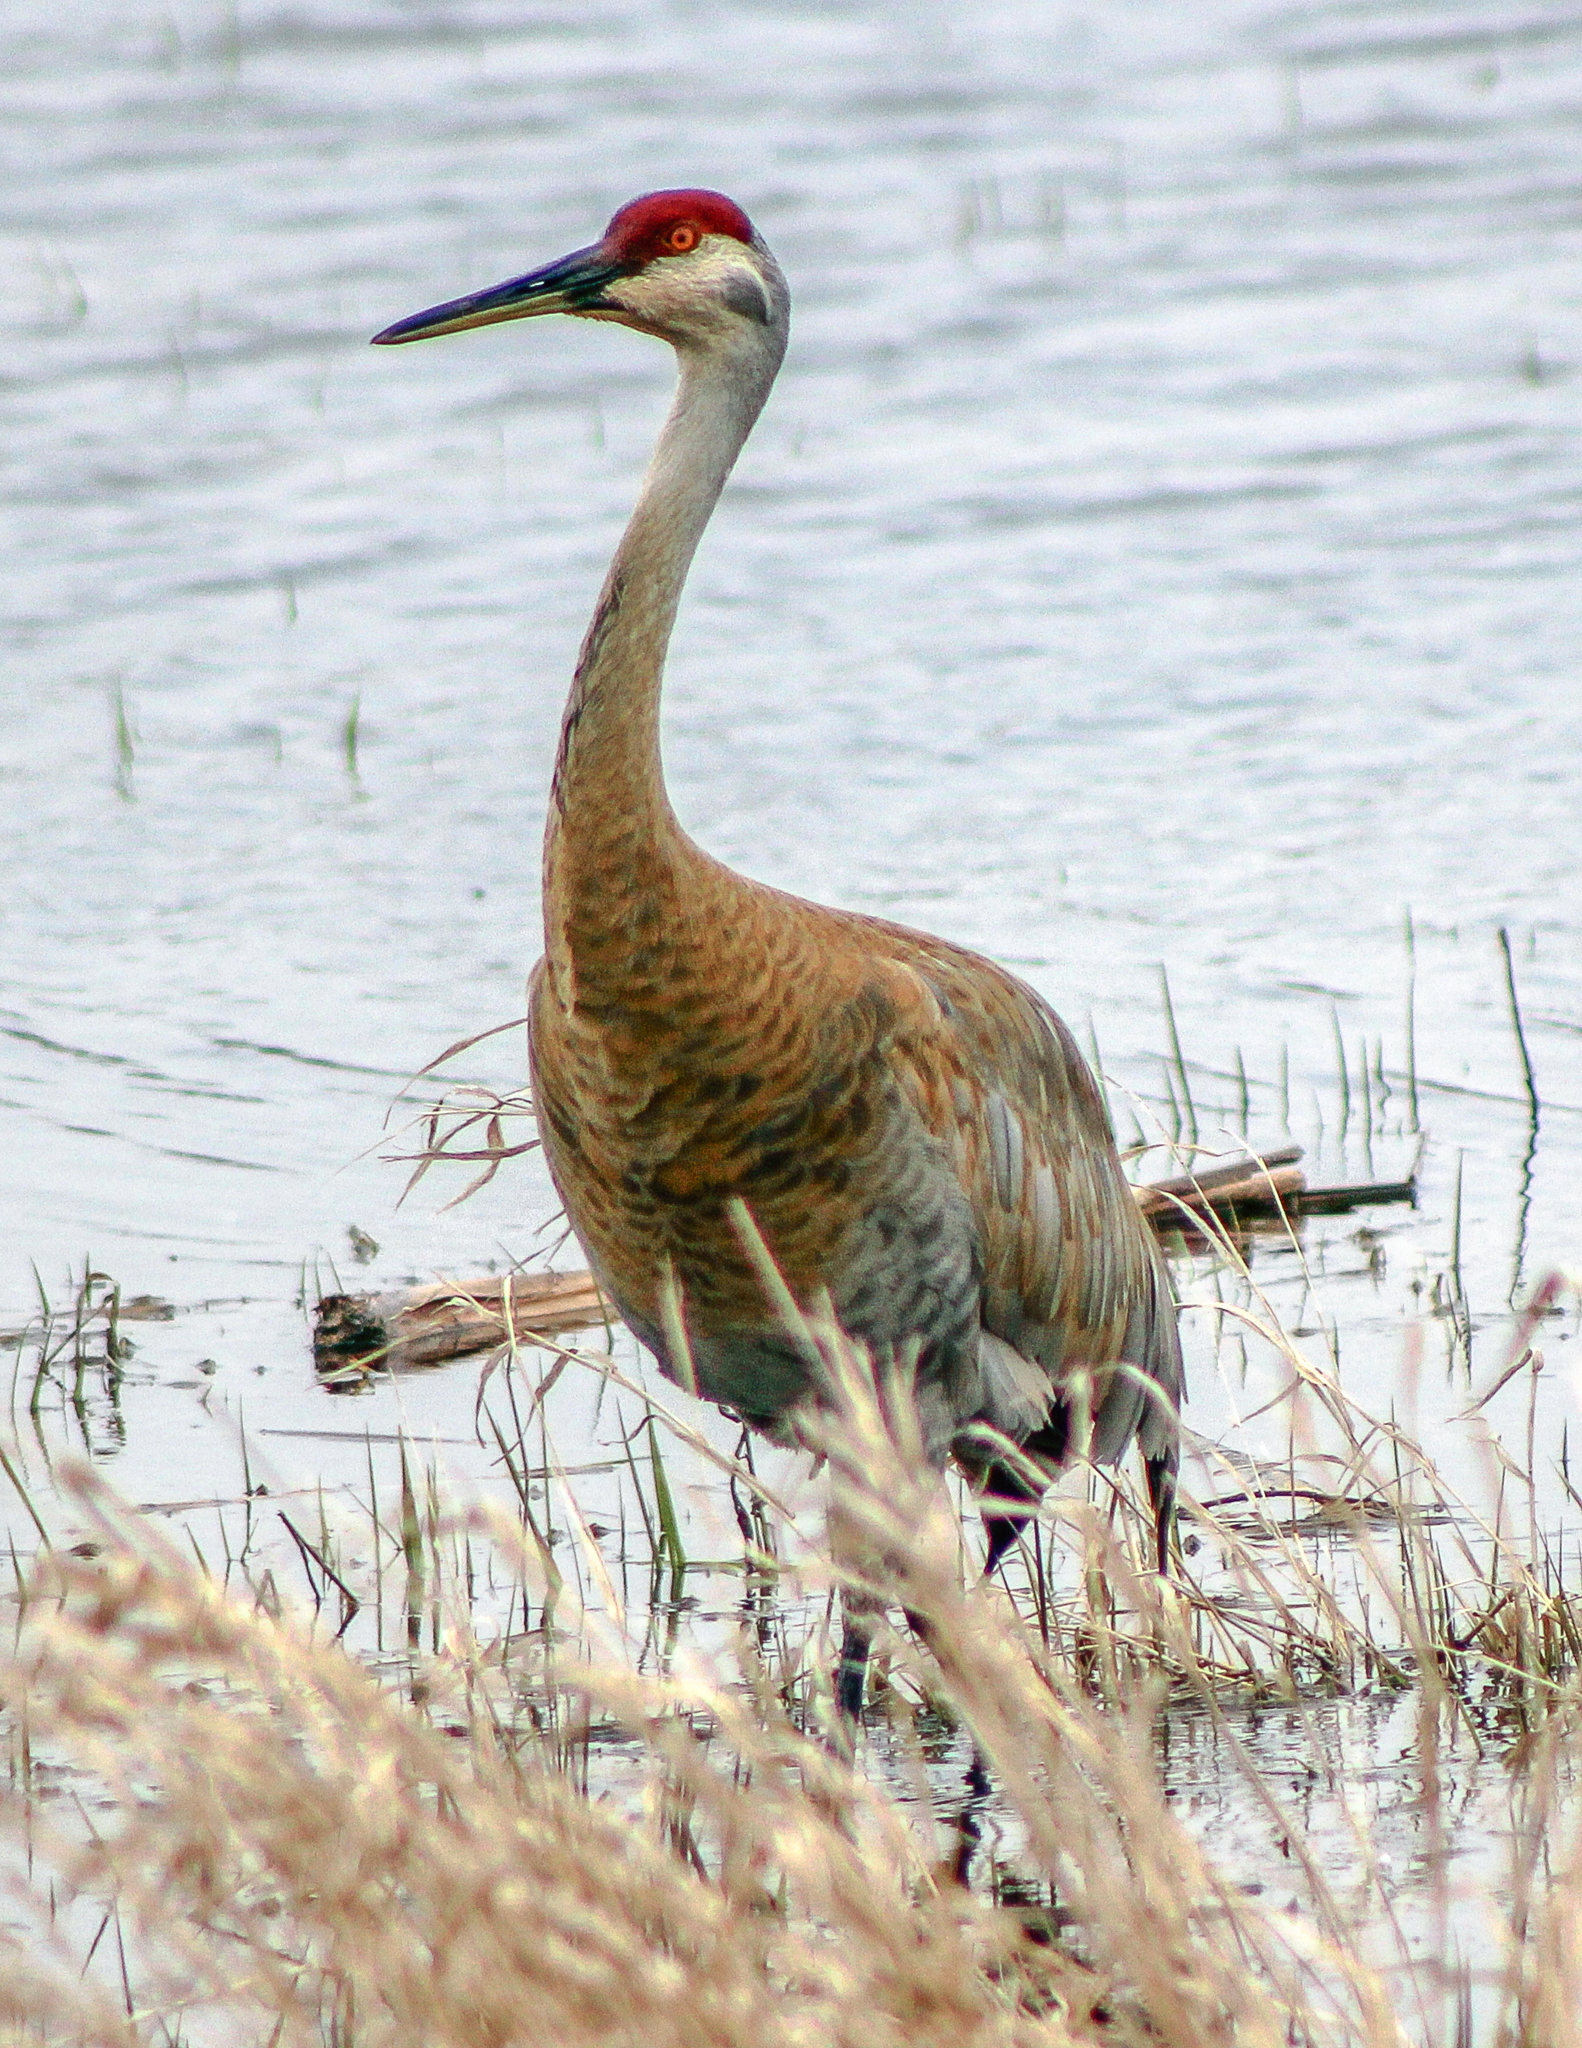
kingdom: Animalia
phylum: Chordata
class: Aves
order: Gruiformes
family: Gruidae
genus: Grus
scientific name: Grus canadensis
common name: Sandhill crane
